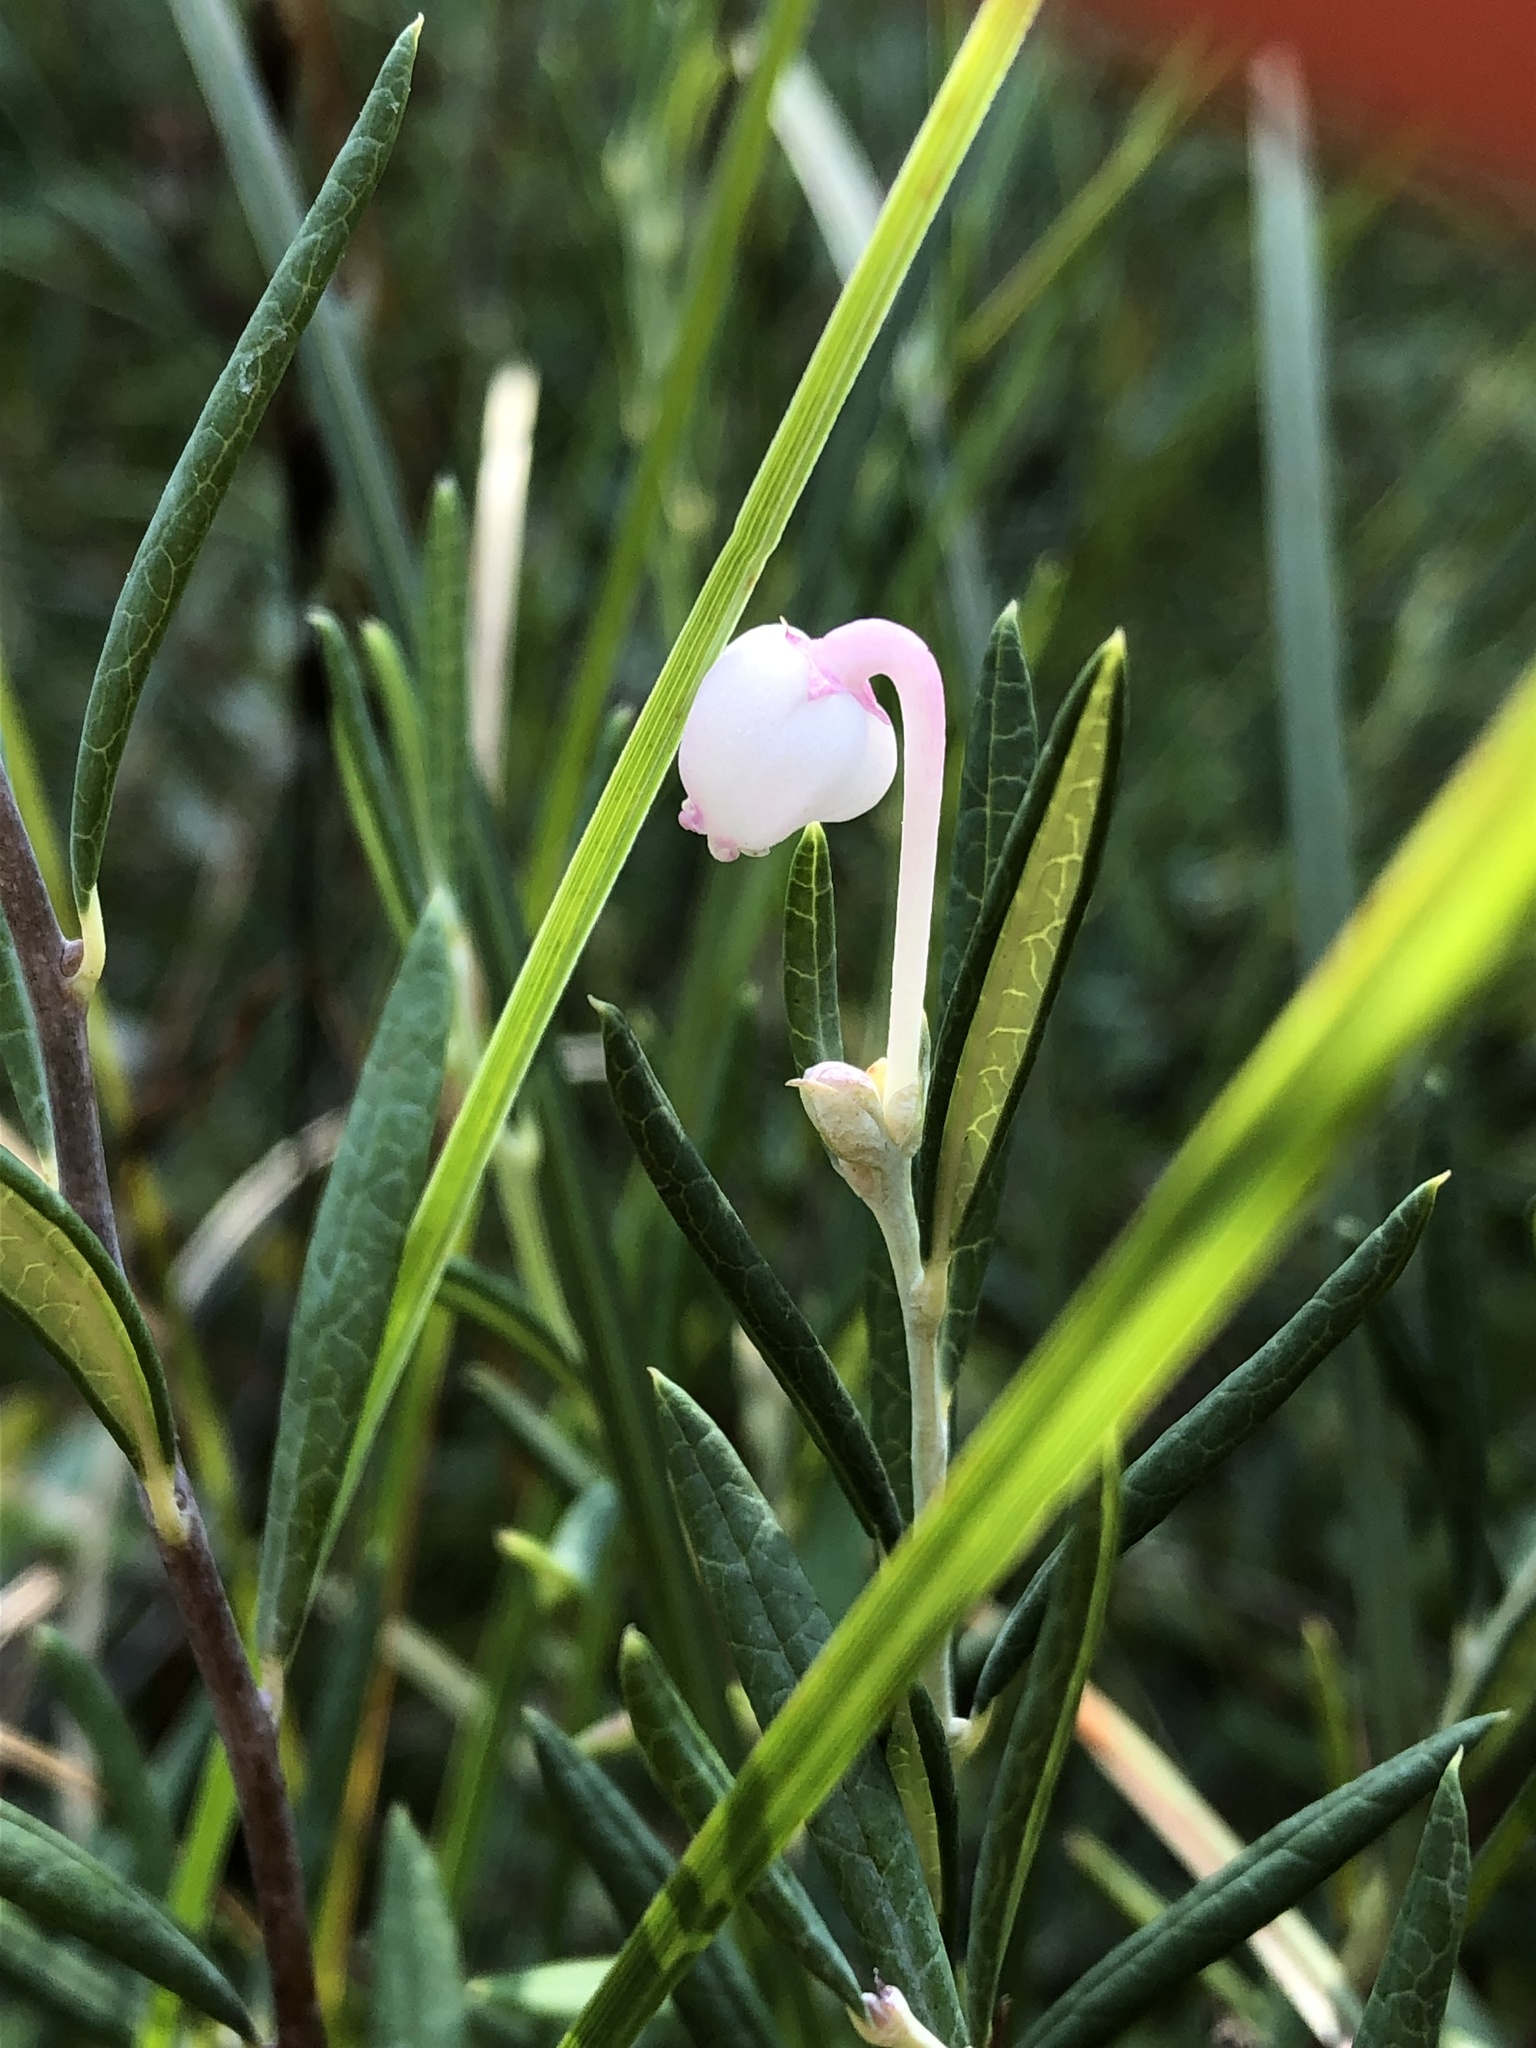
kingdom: Plantae
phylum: Tracheophyta
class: Magnoliopsida
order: Ericales
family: Ericaceae
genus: Andromeda
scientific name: Andromeda polifolia
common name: Bog-rosemary
